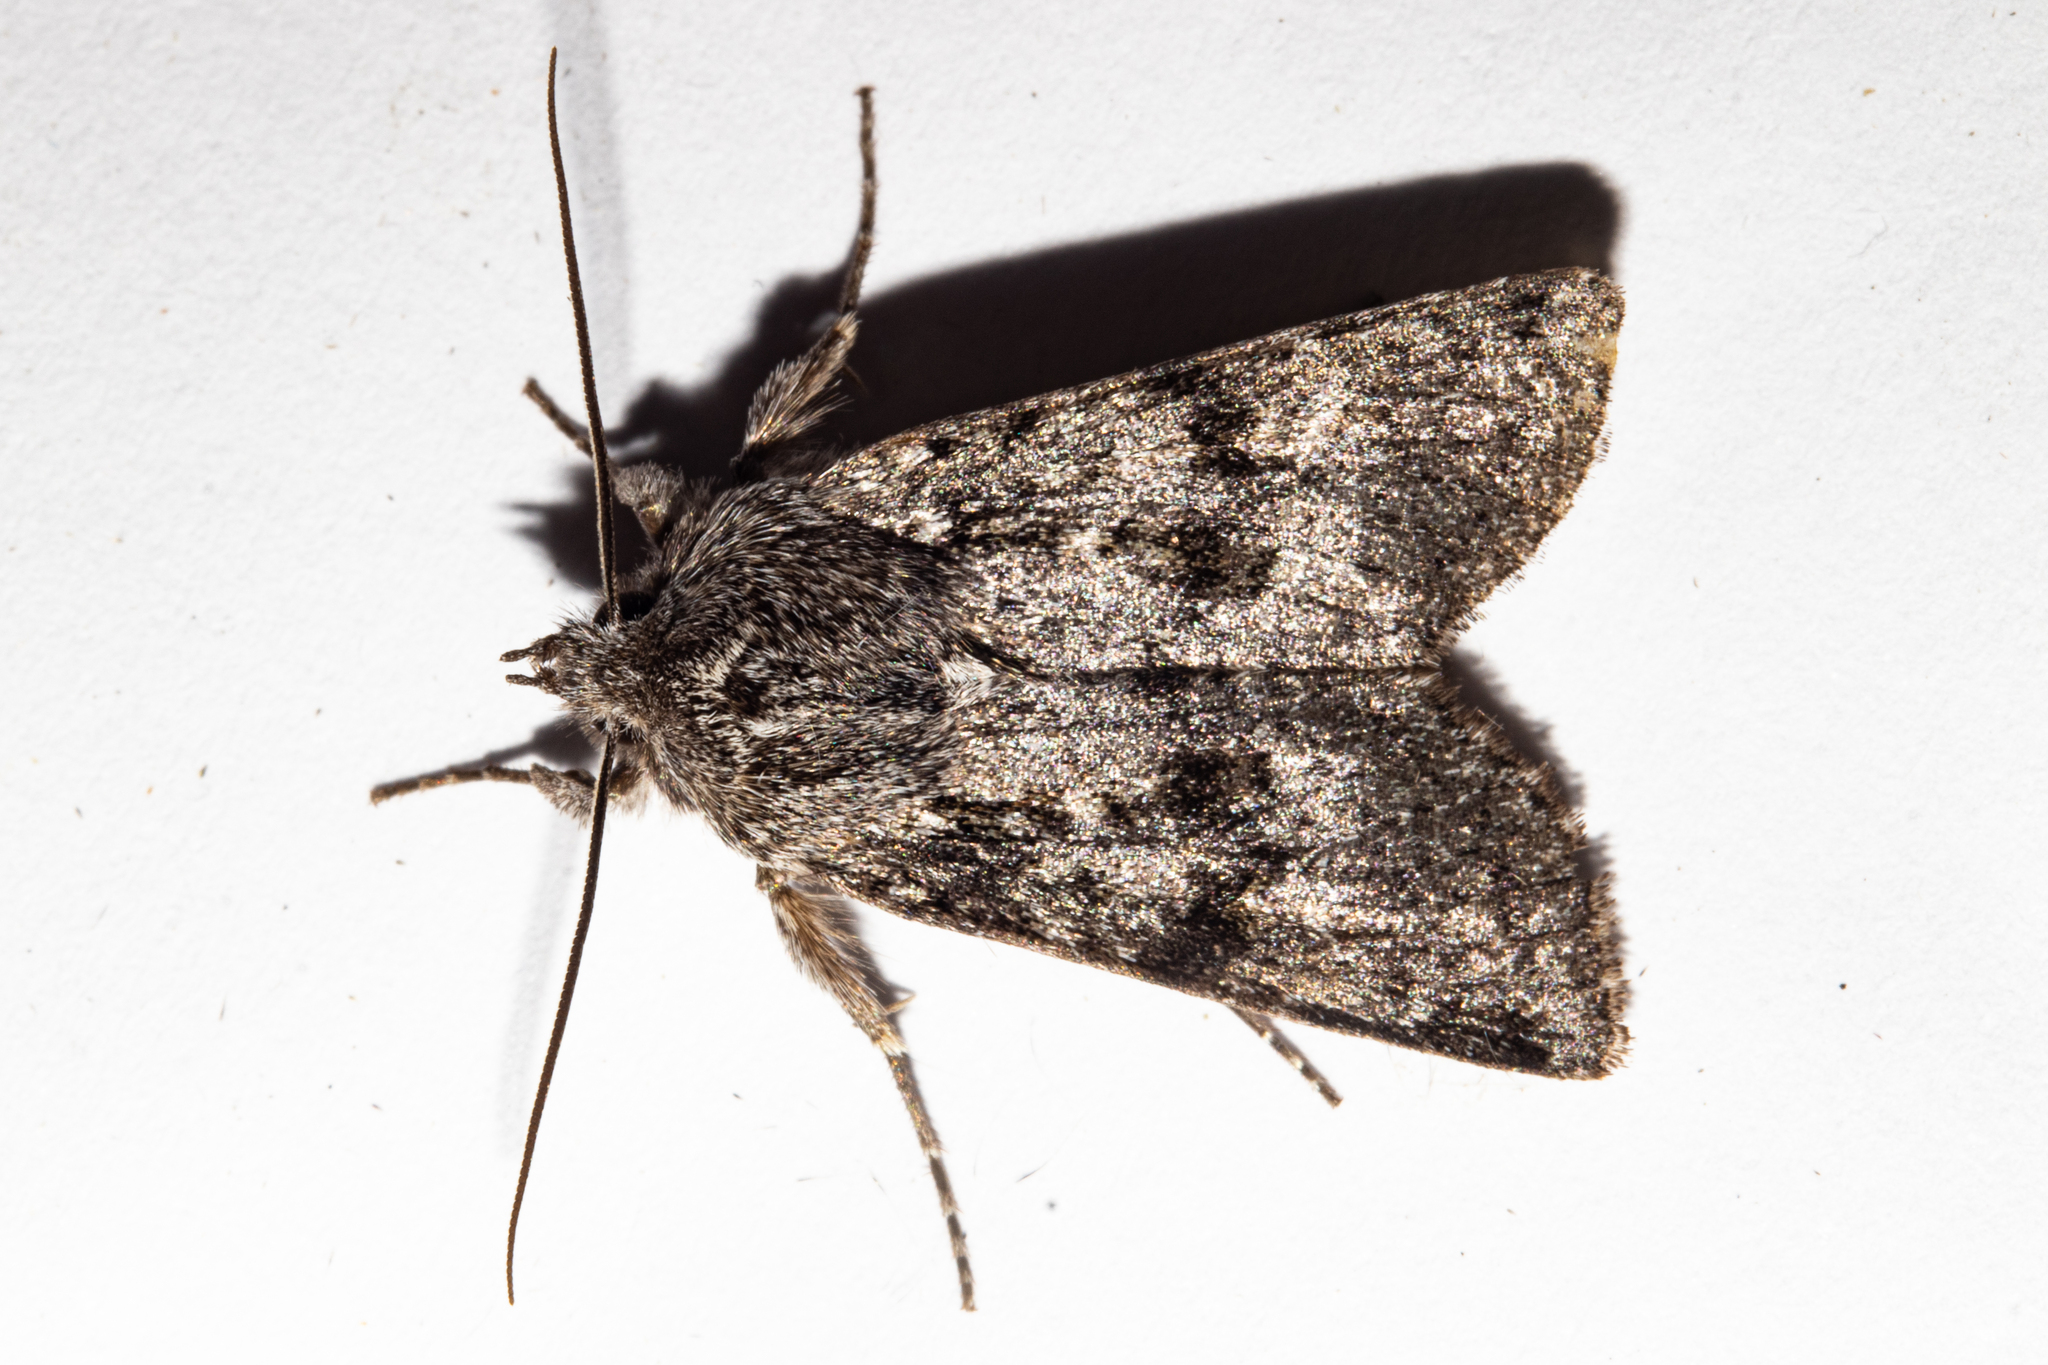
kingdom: Animalia
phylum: Arthropoda
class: Insecta
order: Lepidoptera
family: Noctuidae
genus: Physetica
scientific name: Physetica cucullina
